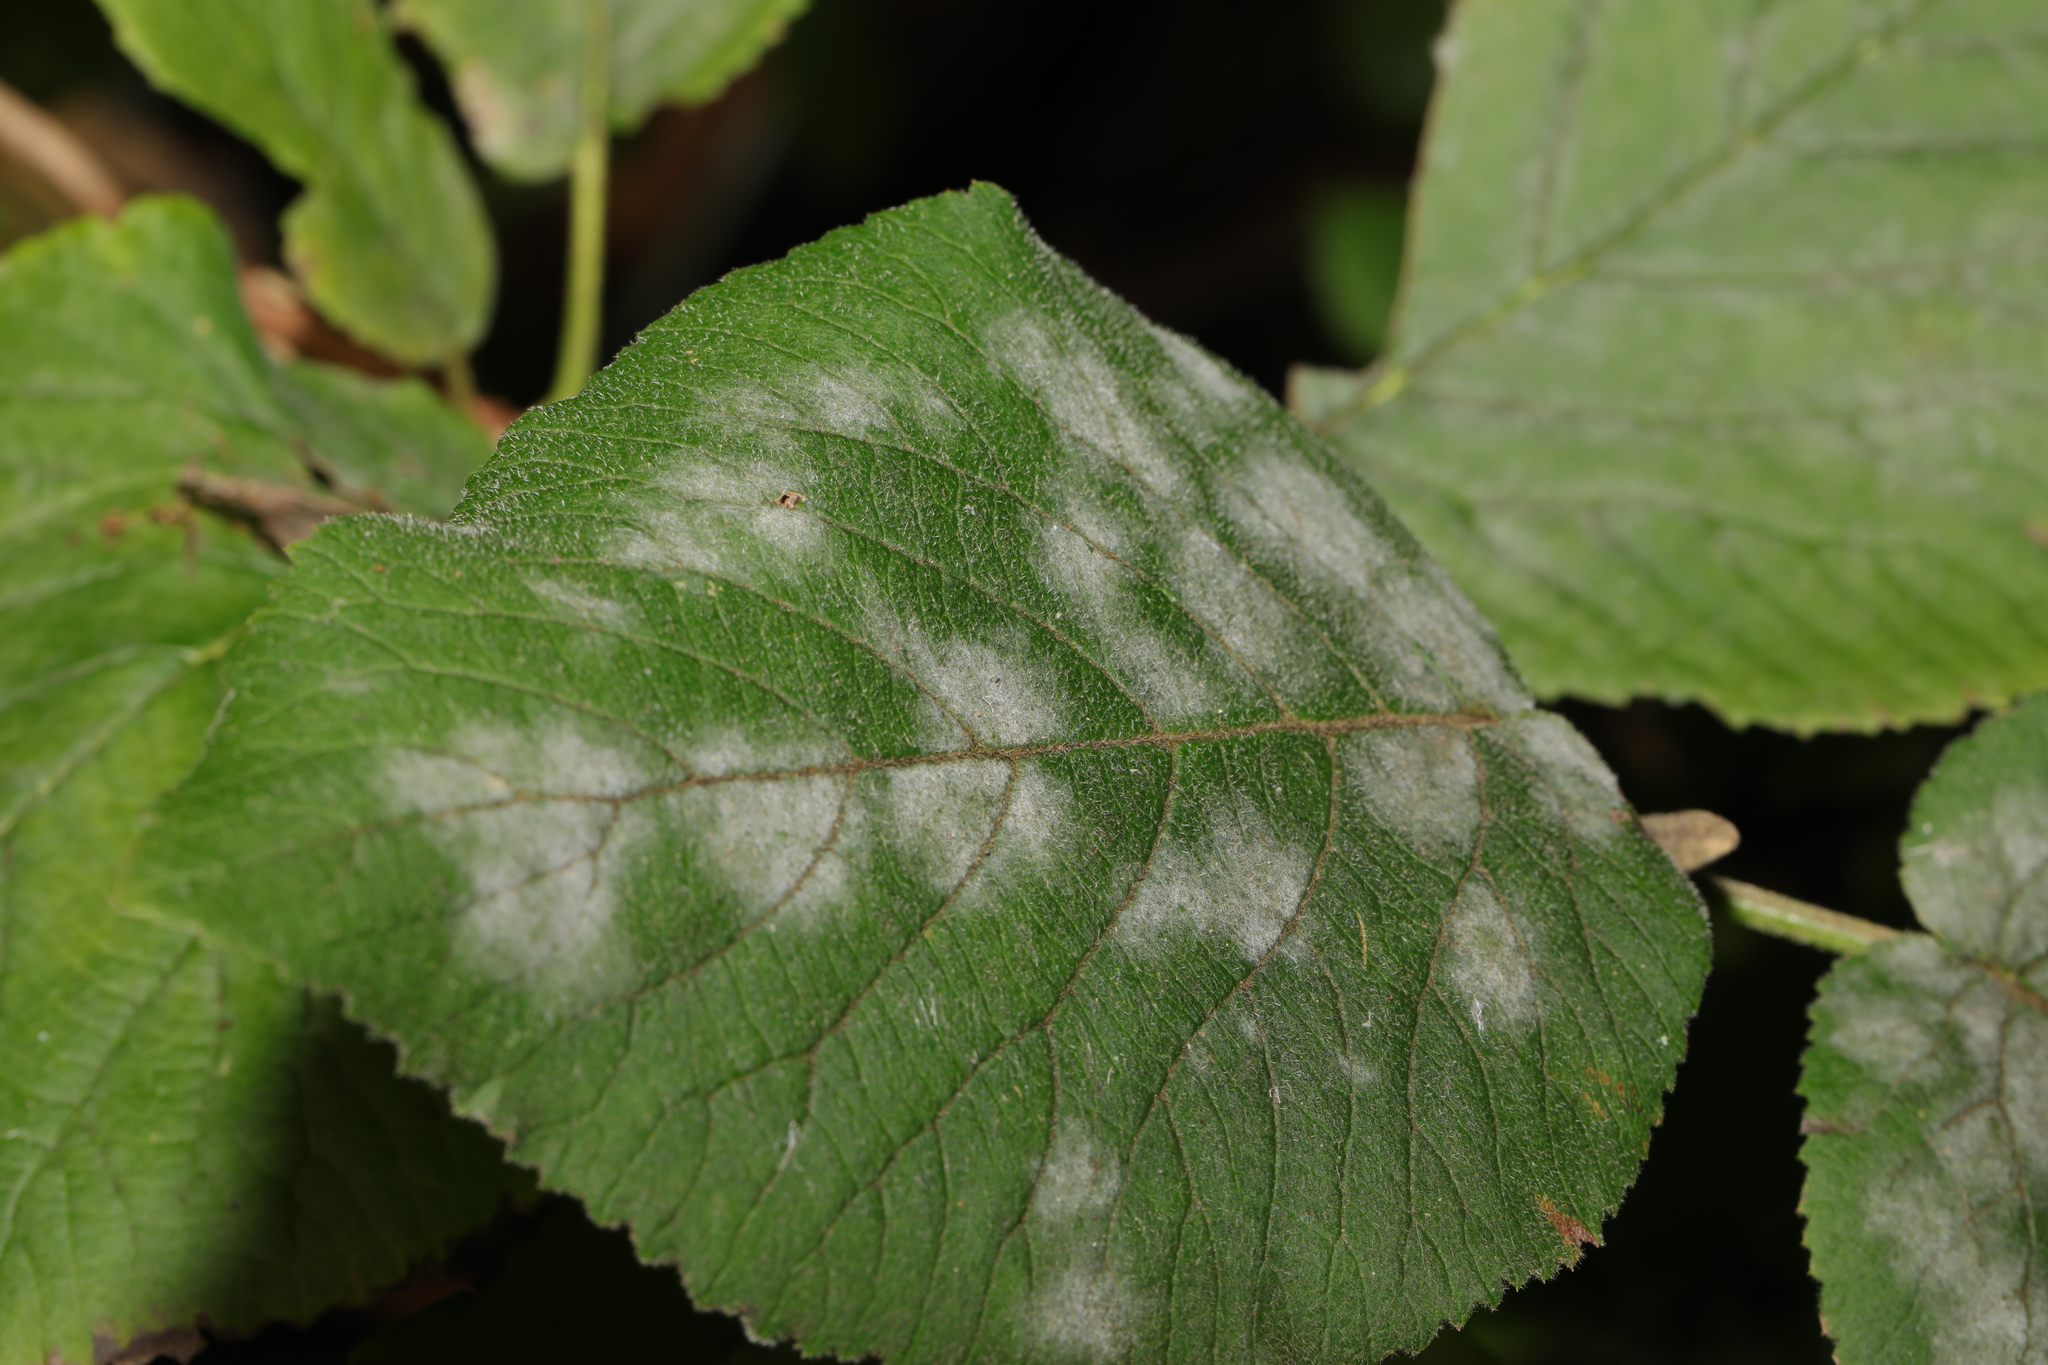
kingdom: Fungi
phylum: Ascomycota
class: Leotiomycetes
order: Helotiales
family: Erysiphaceae
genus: Erysiphe
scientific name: Erysiphe viburni
